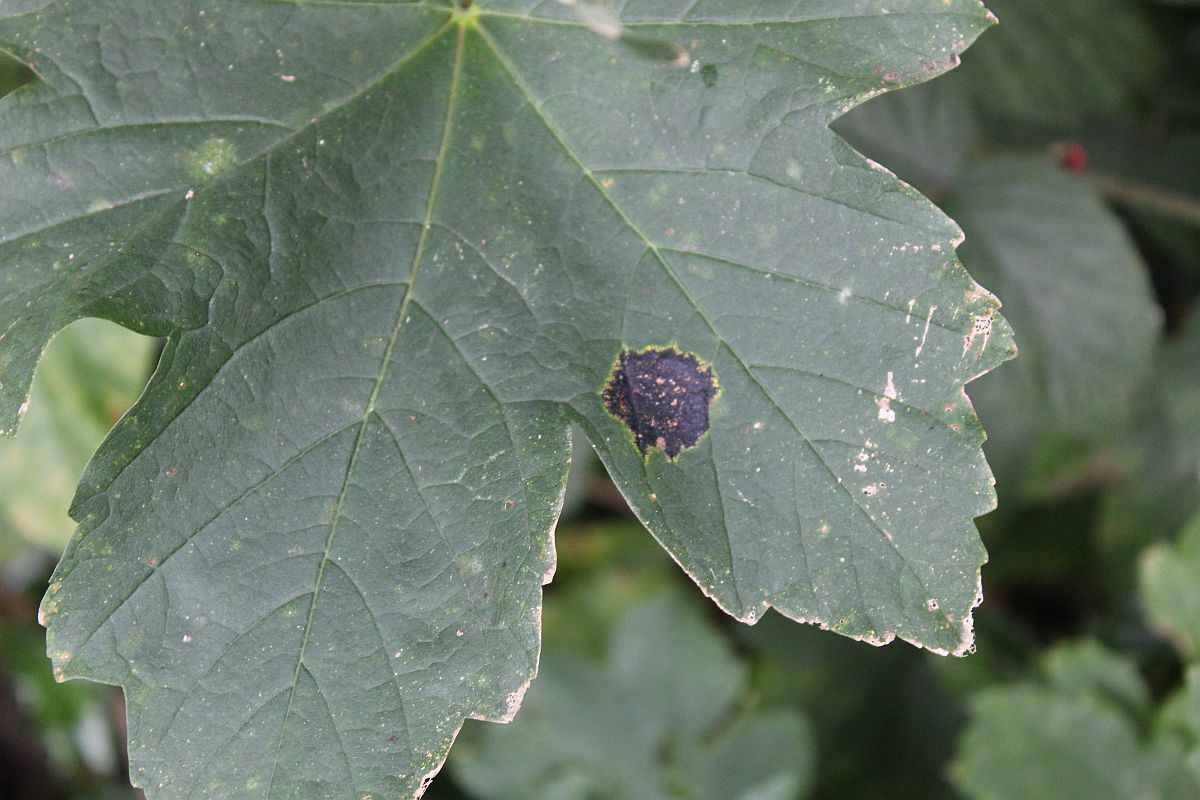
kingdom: Fungi
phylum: Ascomycota
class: Leotiomycetes
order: Rhytismatales
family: Rhytismataceae
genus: Rhytisma
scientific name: Rhytisma acerinum
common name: European tar spot
